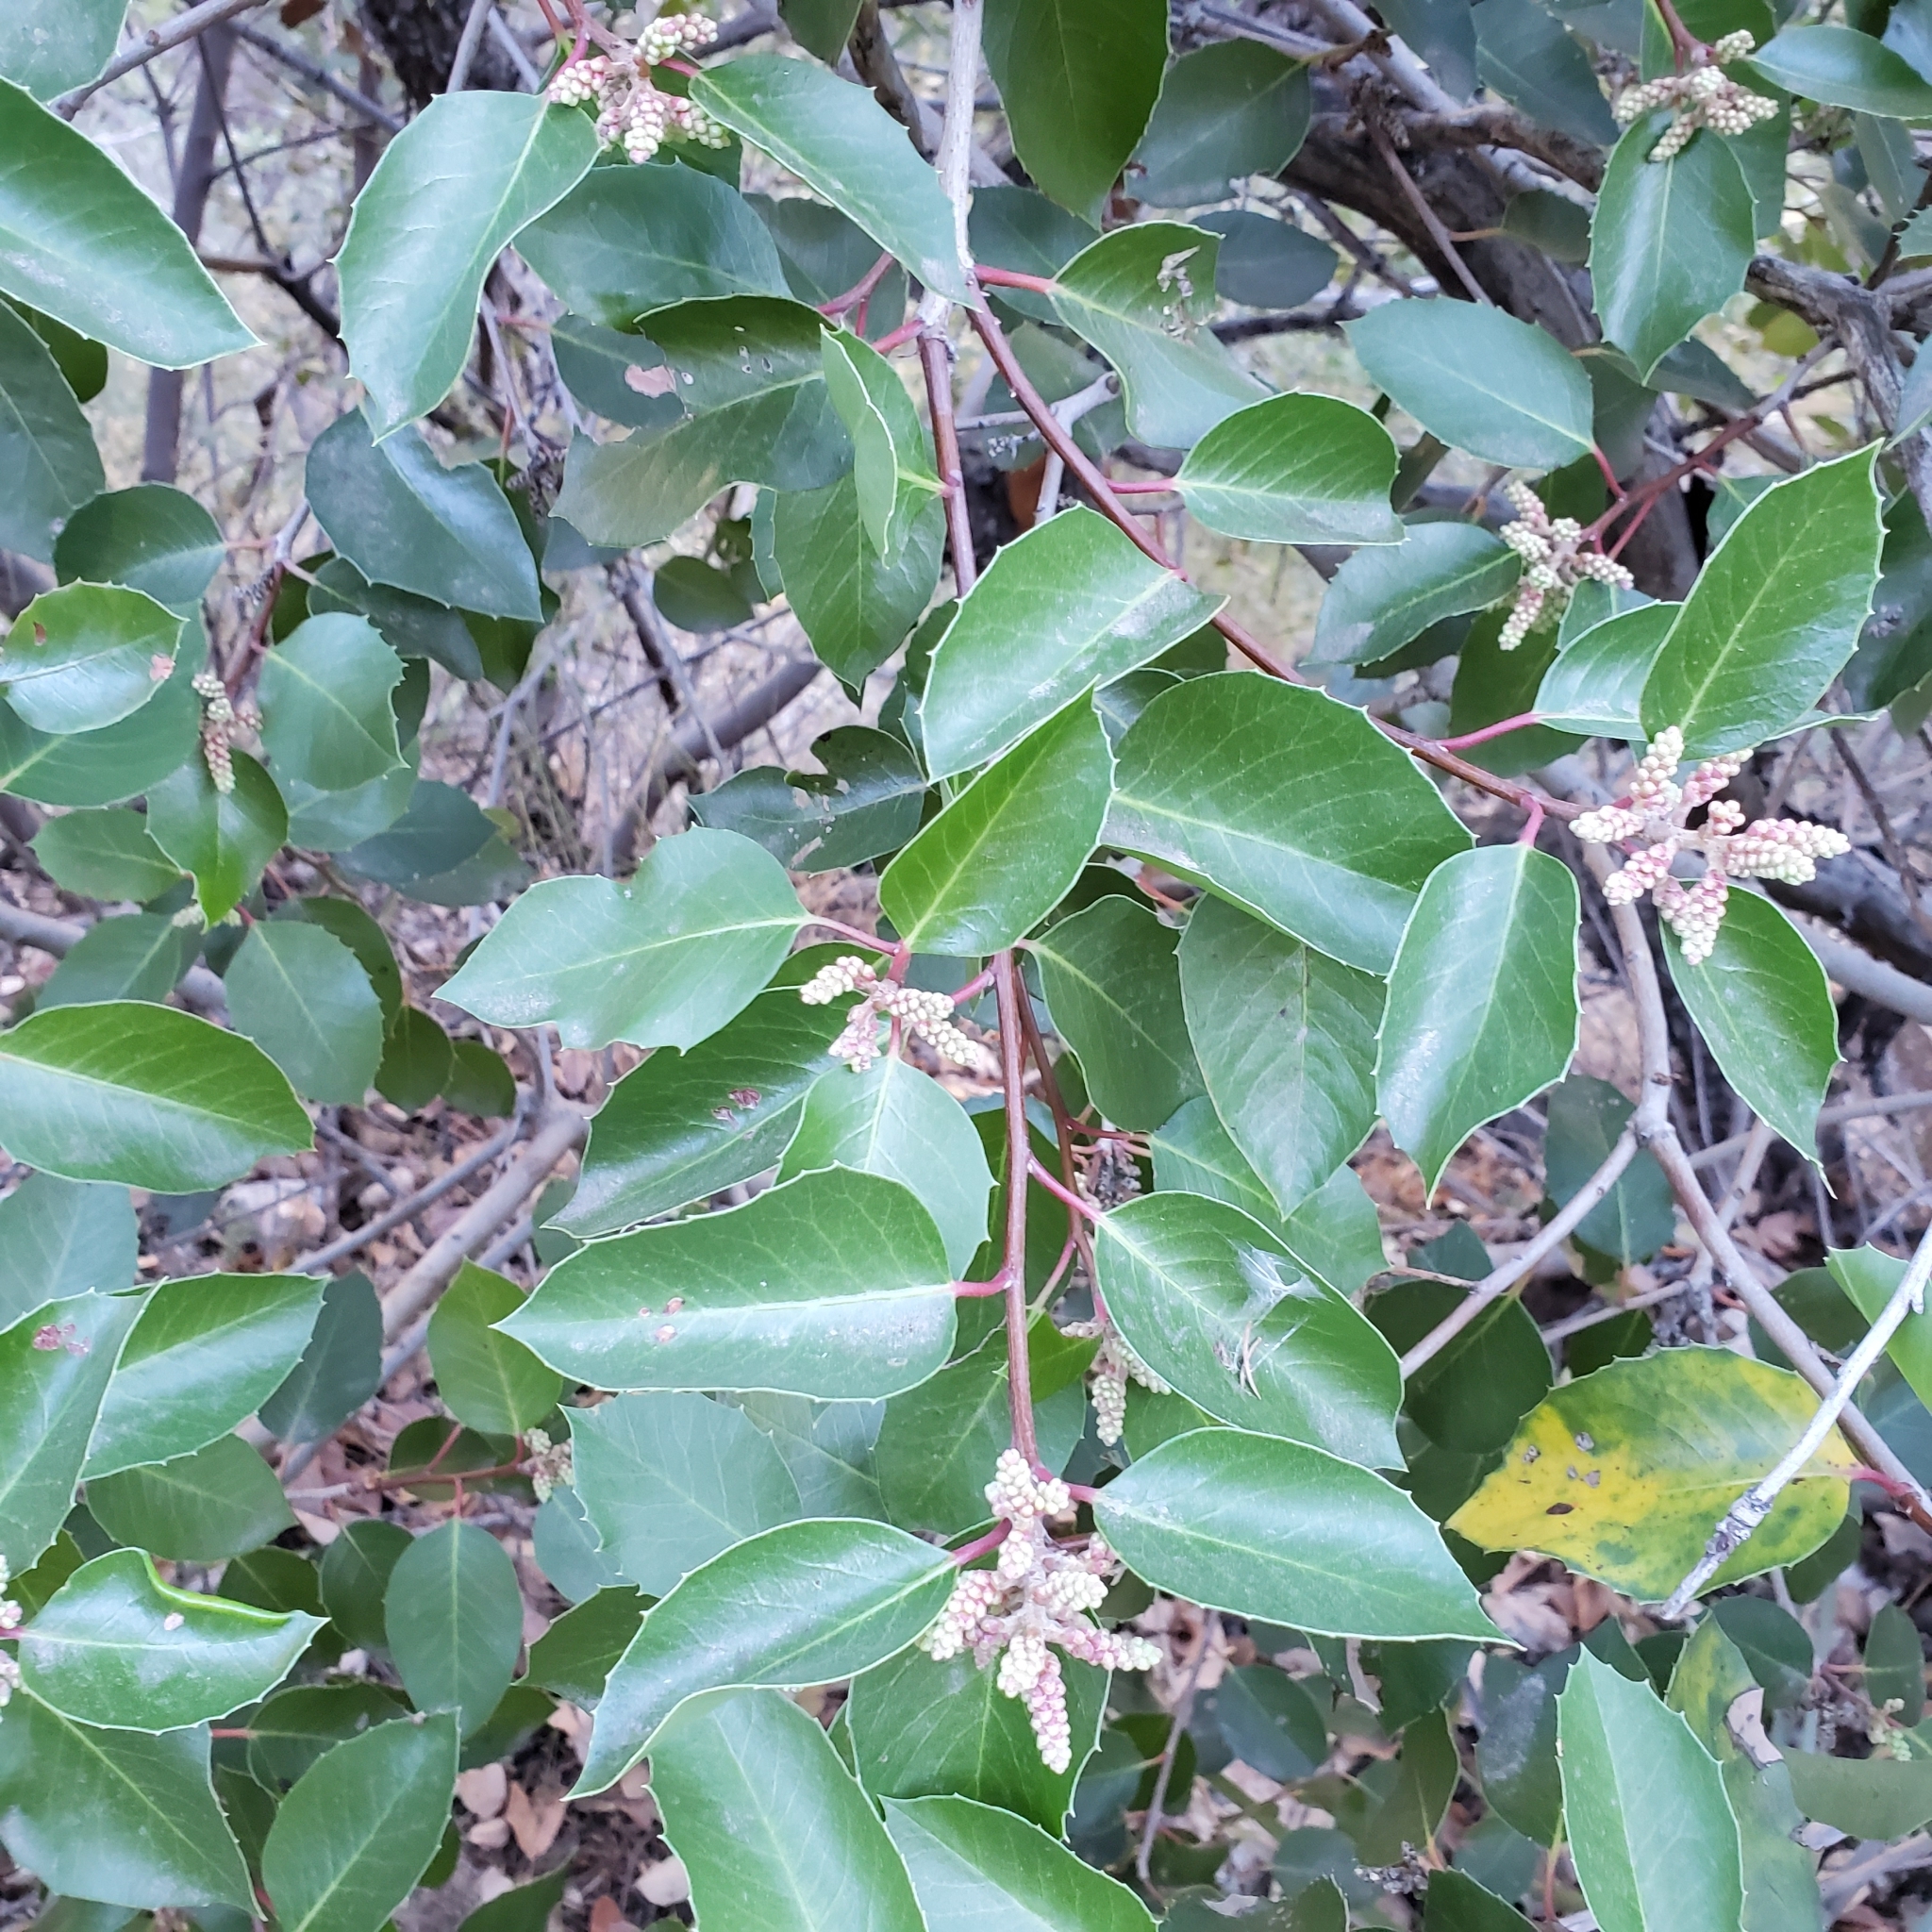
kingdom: Plantae
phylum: Tracheophyta
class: Magnoliopsida
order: Sapindales
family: Anacardiaceae
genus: Rhus
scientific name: Rhus ovata
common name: Sugar sumac
